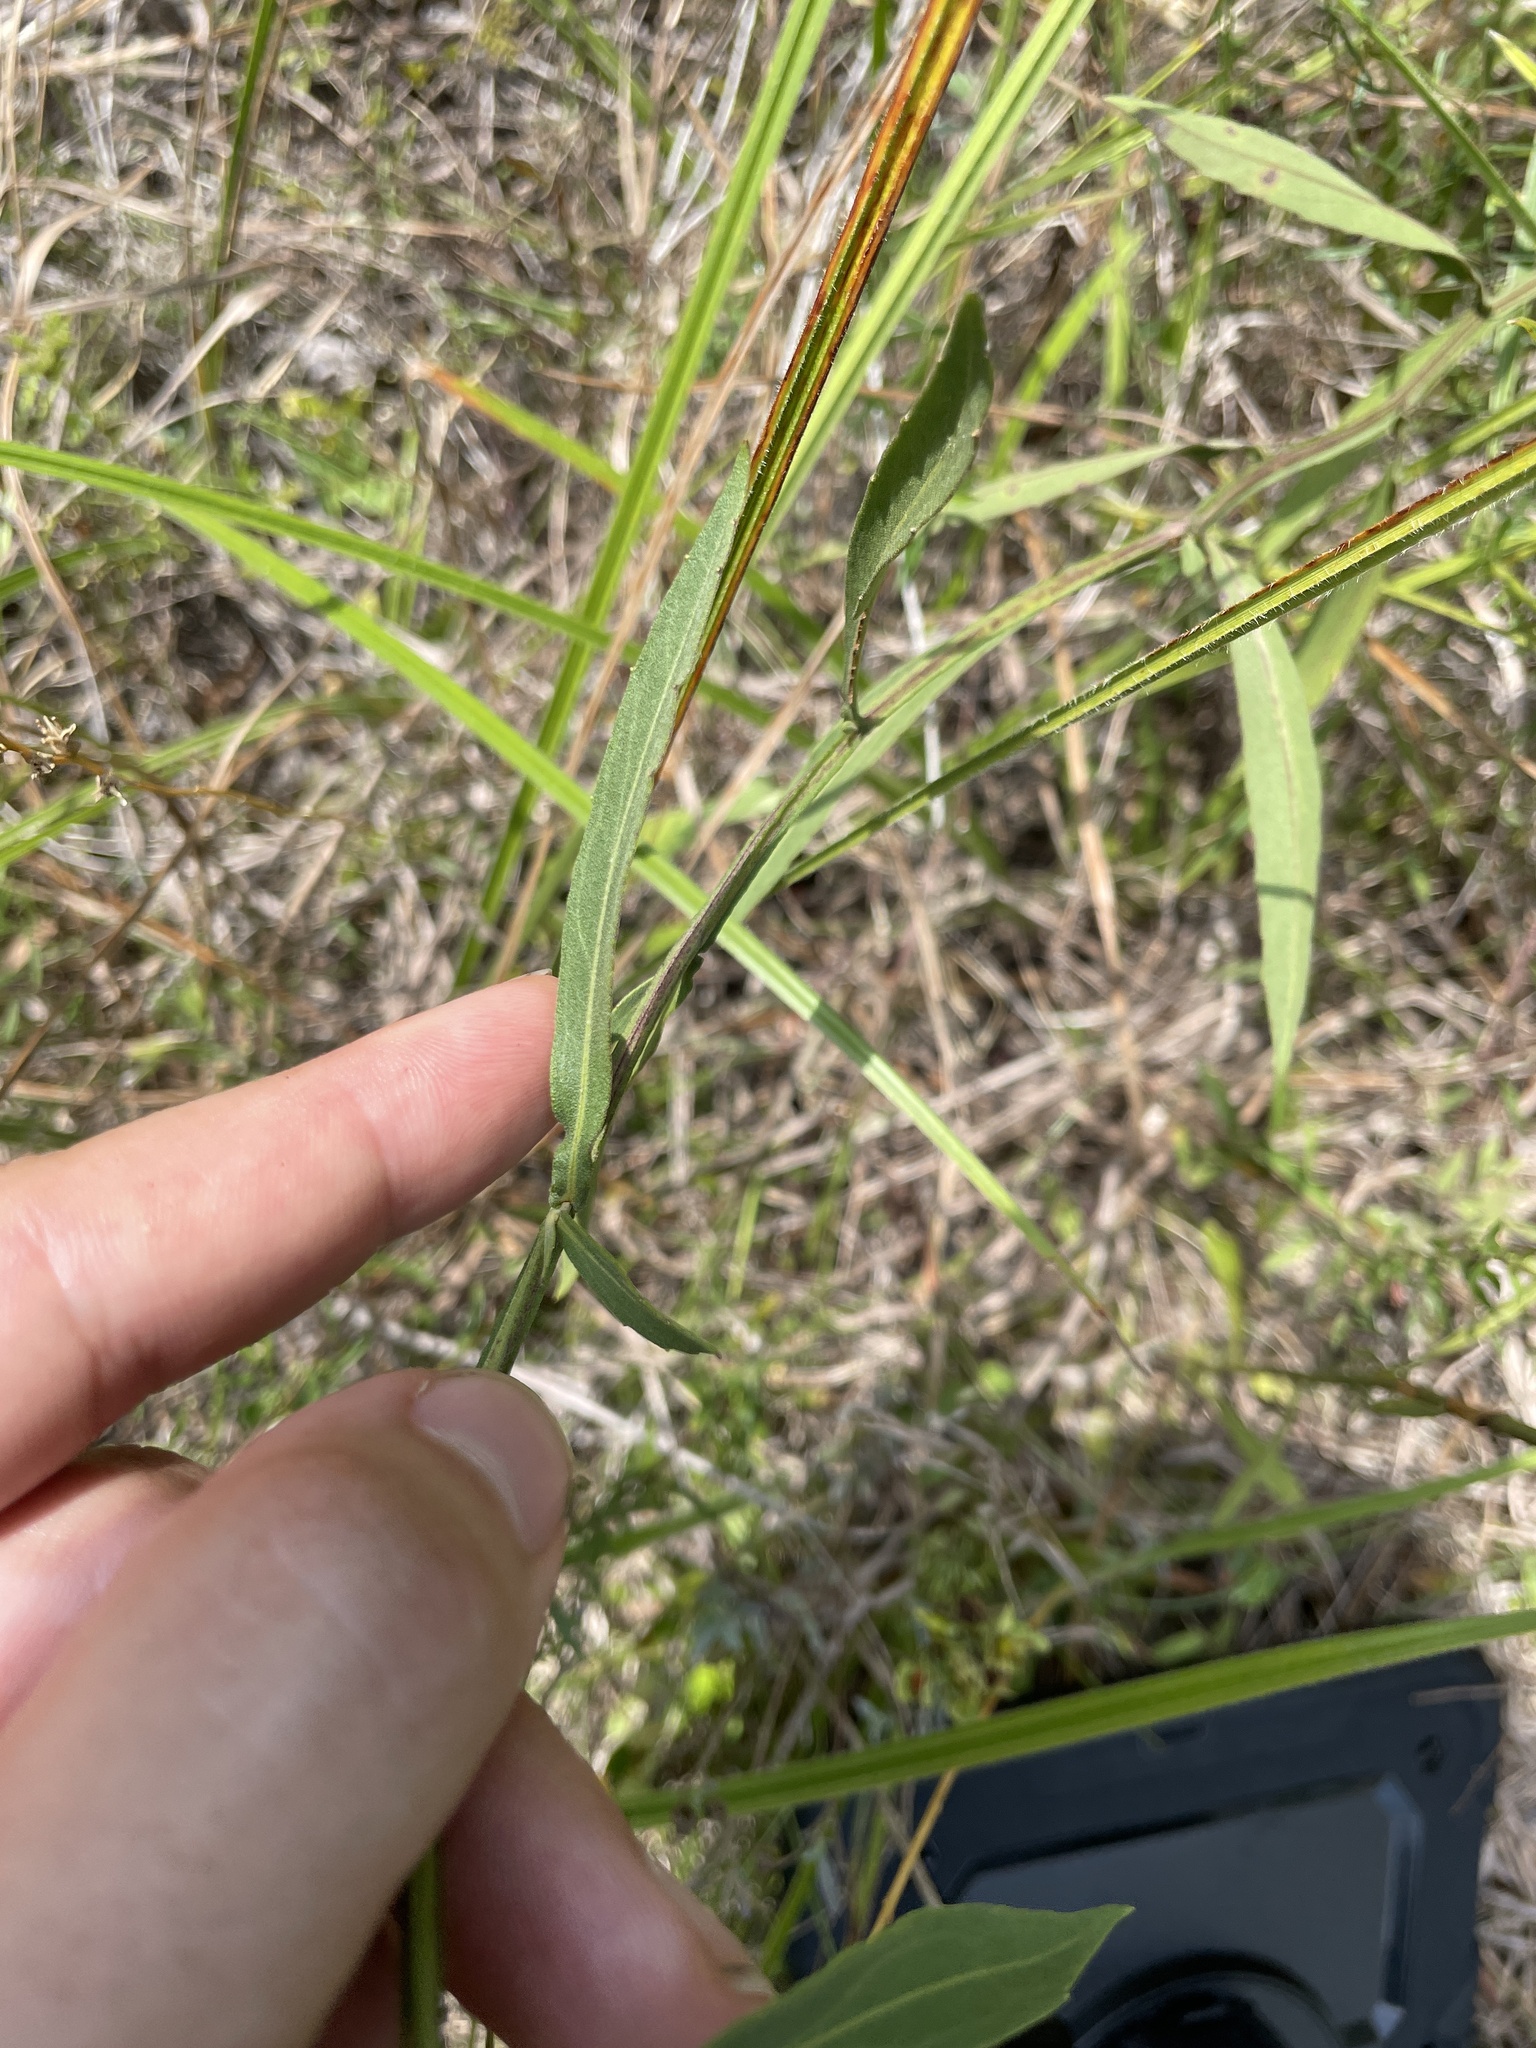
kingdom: Plantae
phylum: Tracheophyta
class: Magnoliopsida
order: Asterales
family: Asteraceae
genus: Helenium
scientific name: Helenium autumnale
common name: Sneezeweed
